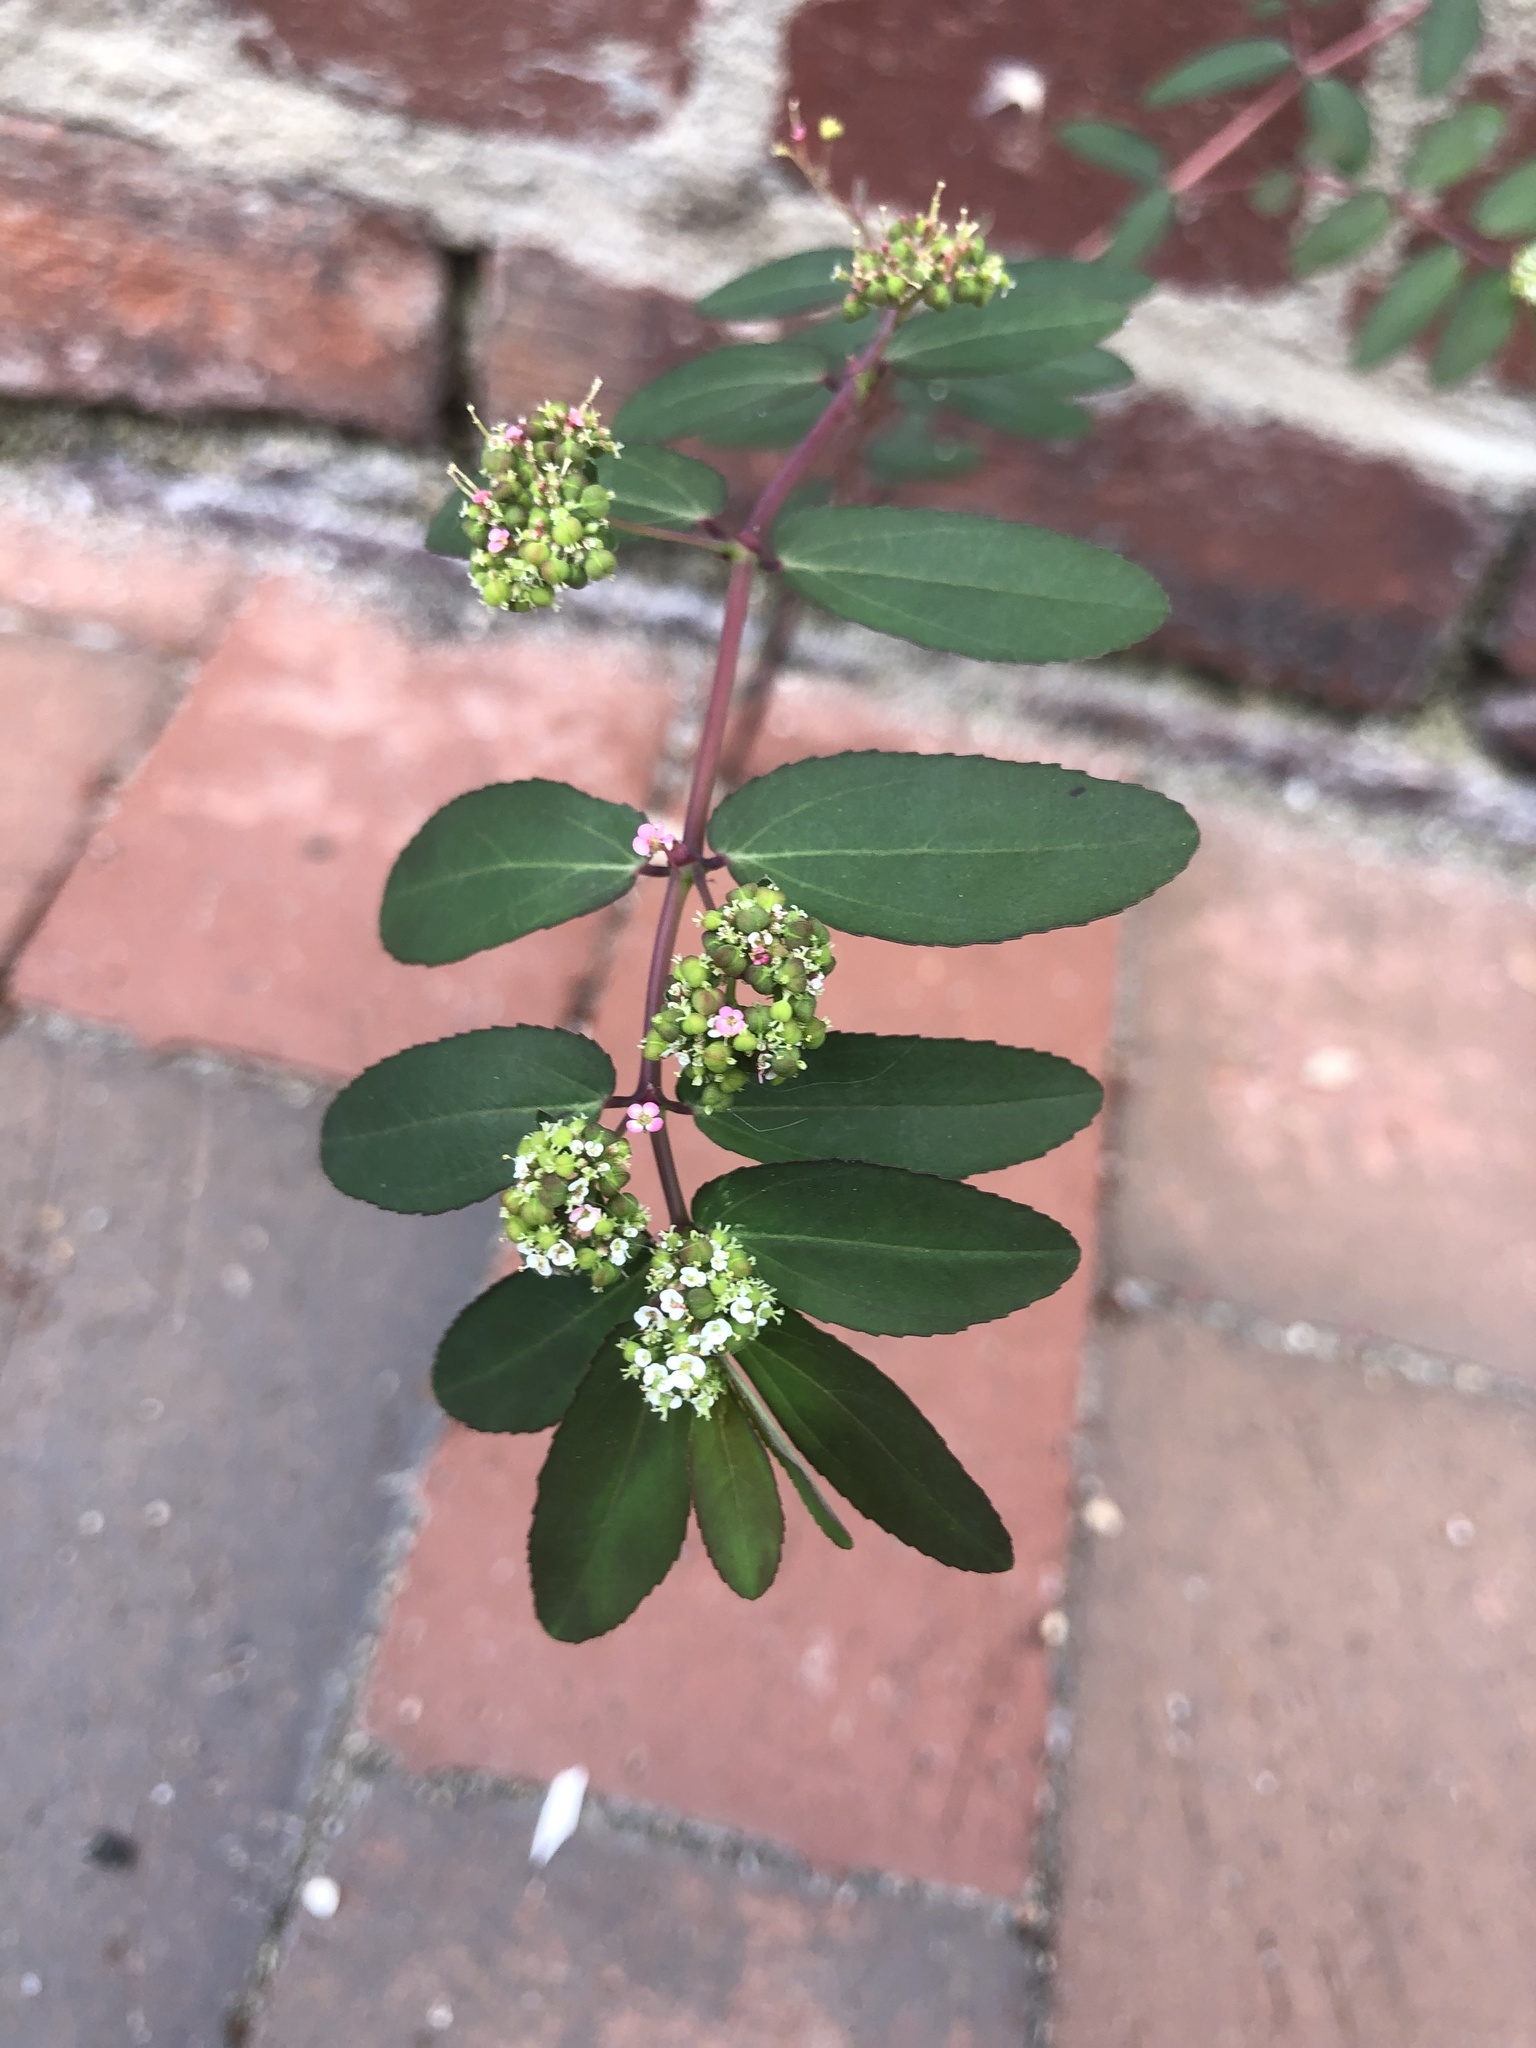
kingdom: Plantae
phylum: Tracheophyta
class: Magnoliopsida
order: Malpighiales
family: Euphorbiaceae
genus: Euphorbia
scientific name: Euphorbia hypericifolia
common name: Graceful sandmat
